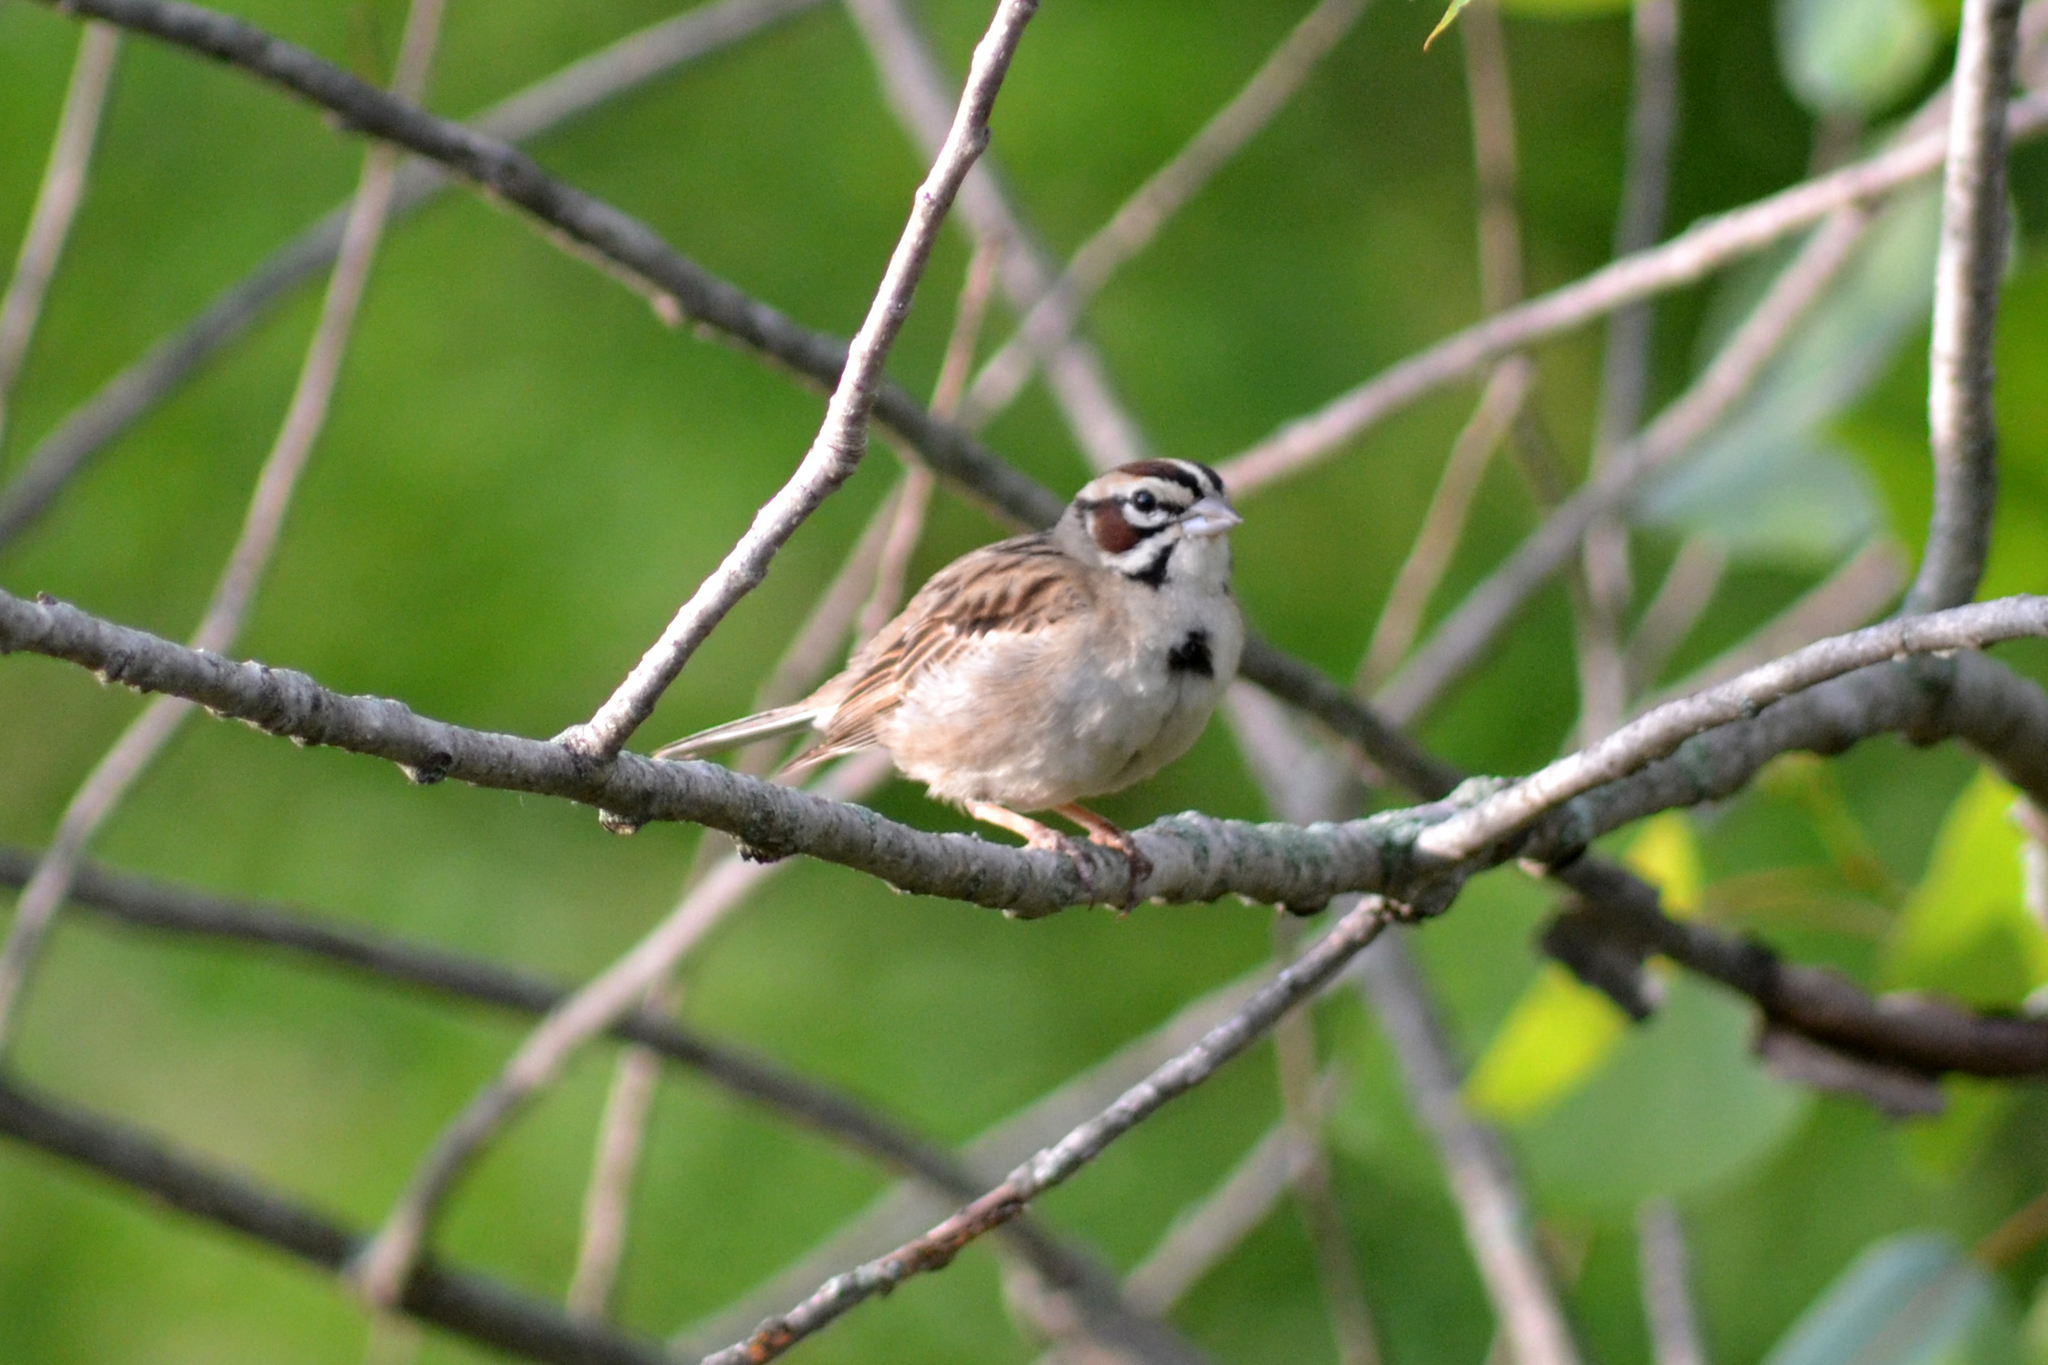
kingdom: Animalia
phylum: Chordata
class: Aves
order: Passeriformes
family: Passerellidae
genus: Chondestes
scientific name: Chondestes grammacus
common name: Lark sparrow
